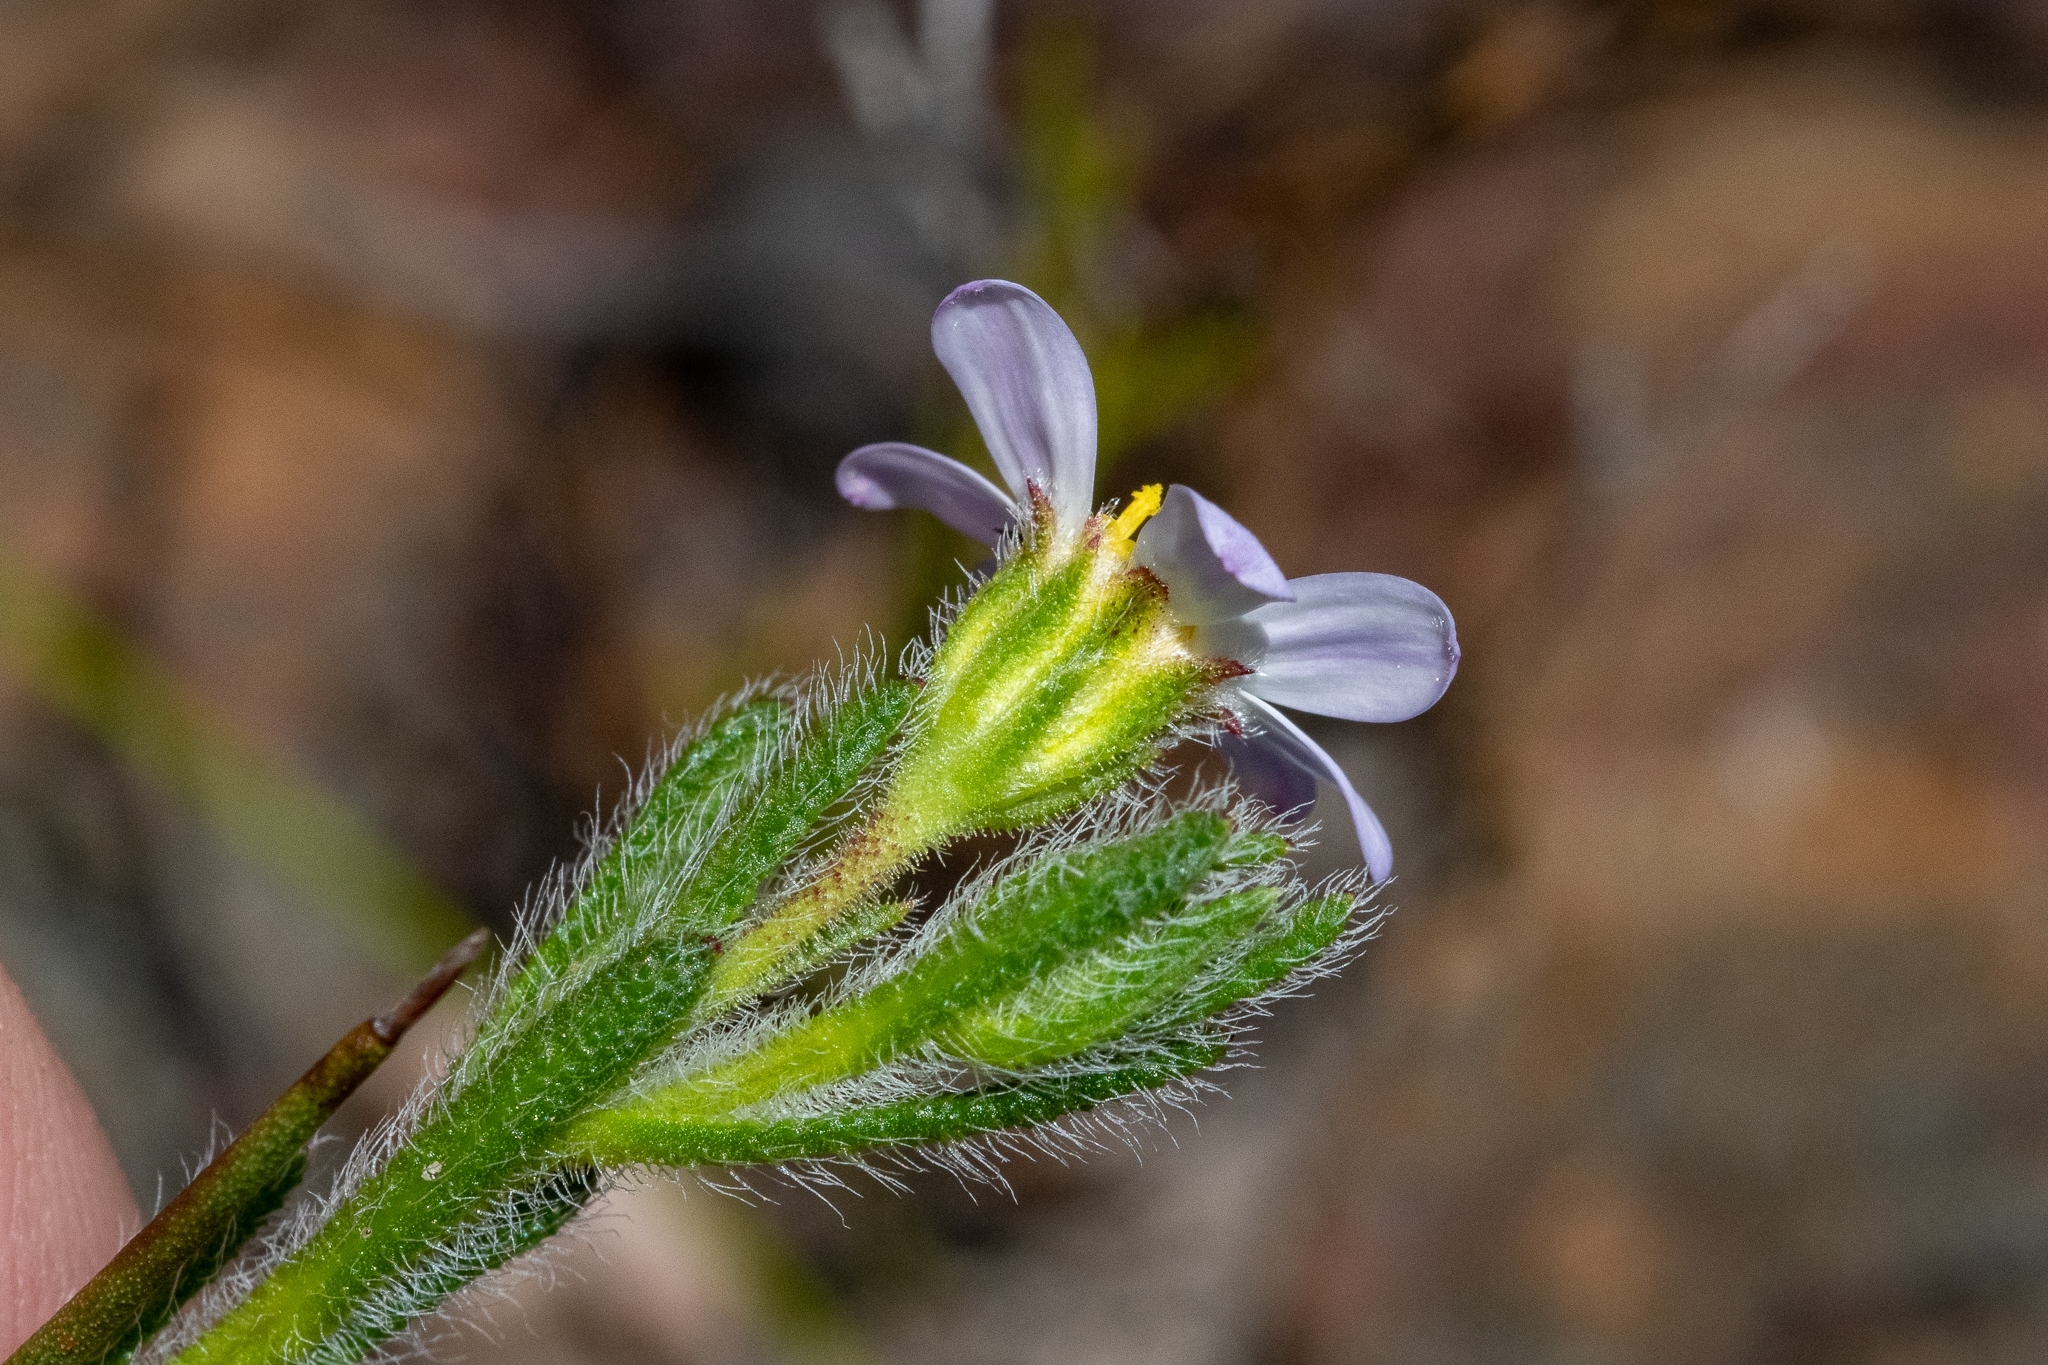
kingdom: Plantae
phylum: Tracheophyta
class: Magnoliopsida
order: Asterales
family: Asteraceae
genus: Zyrphelis
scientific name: Zyrphelis foliosa
